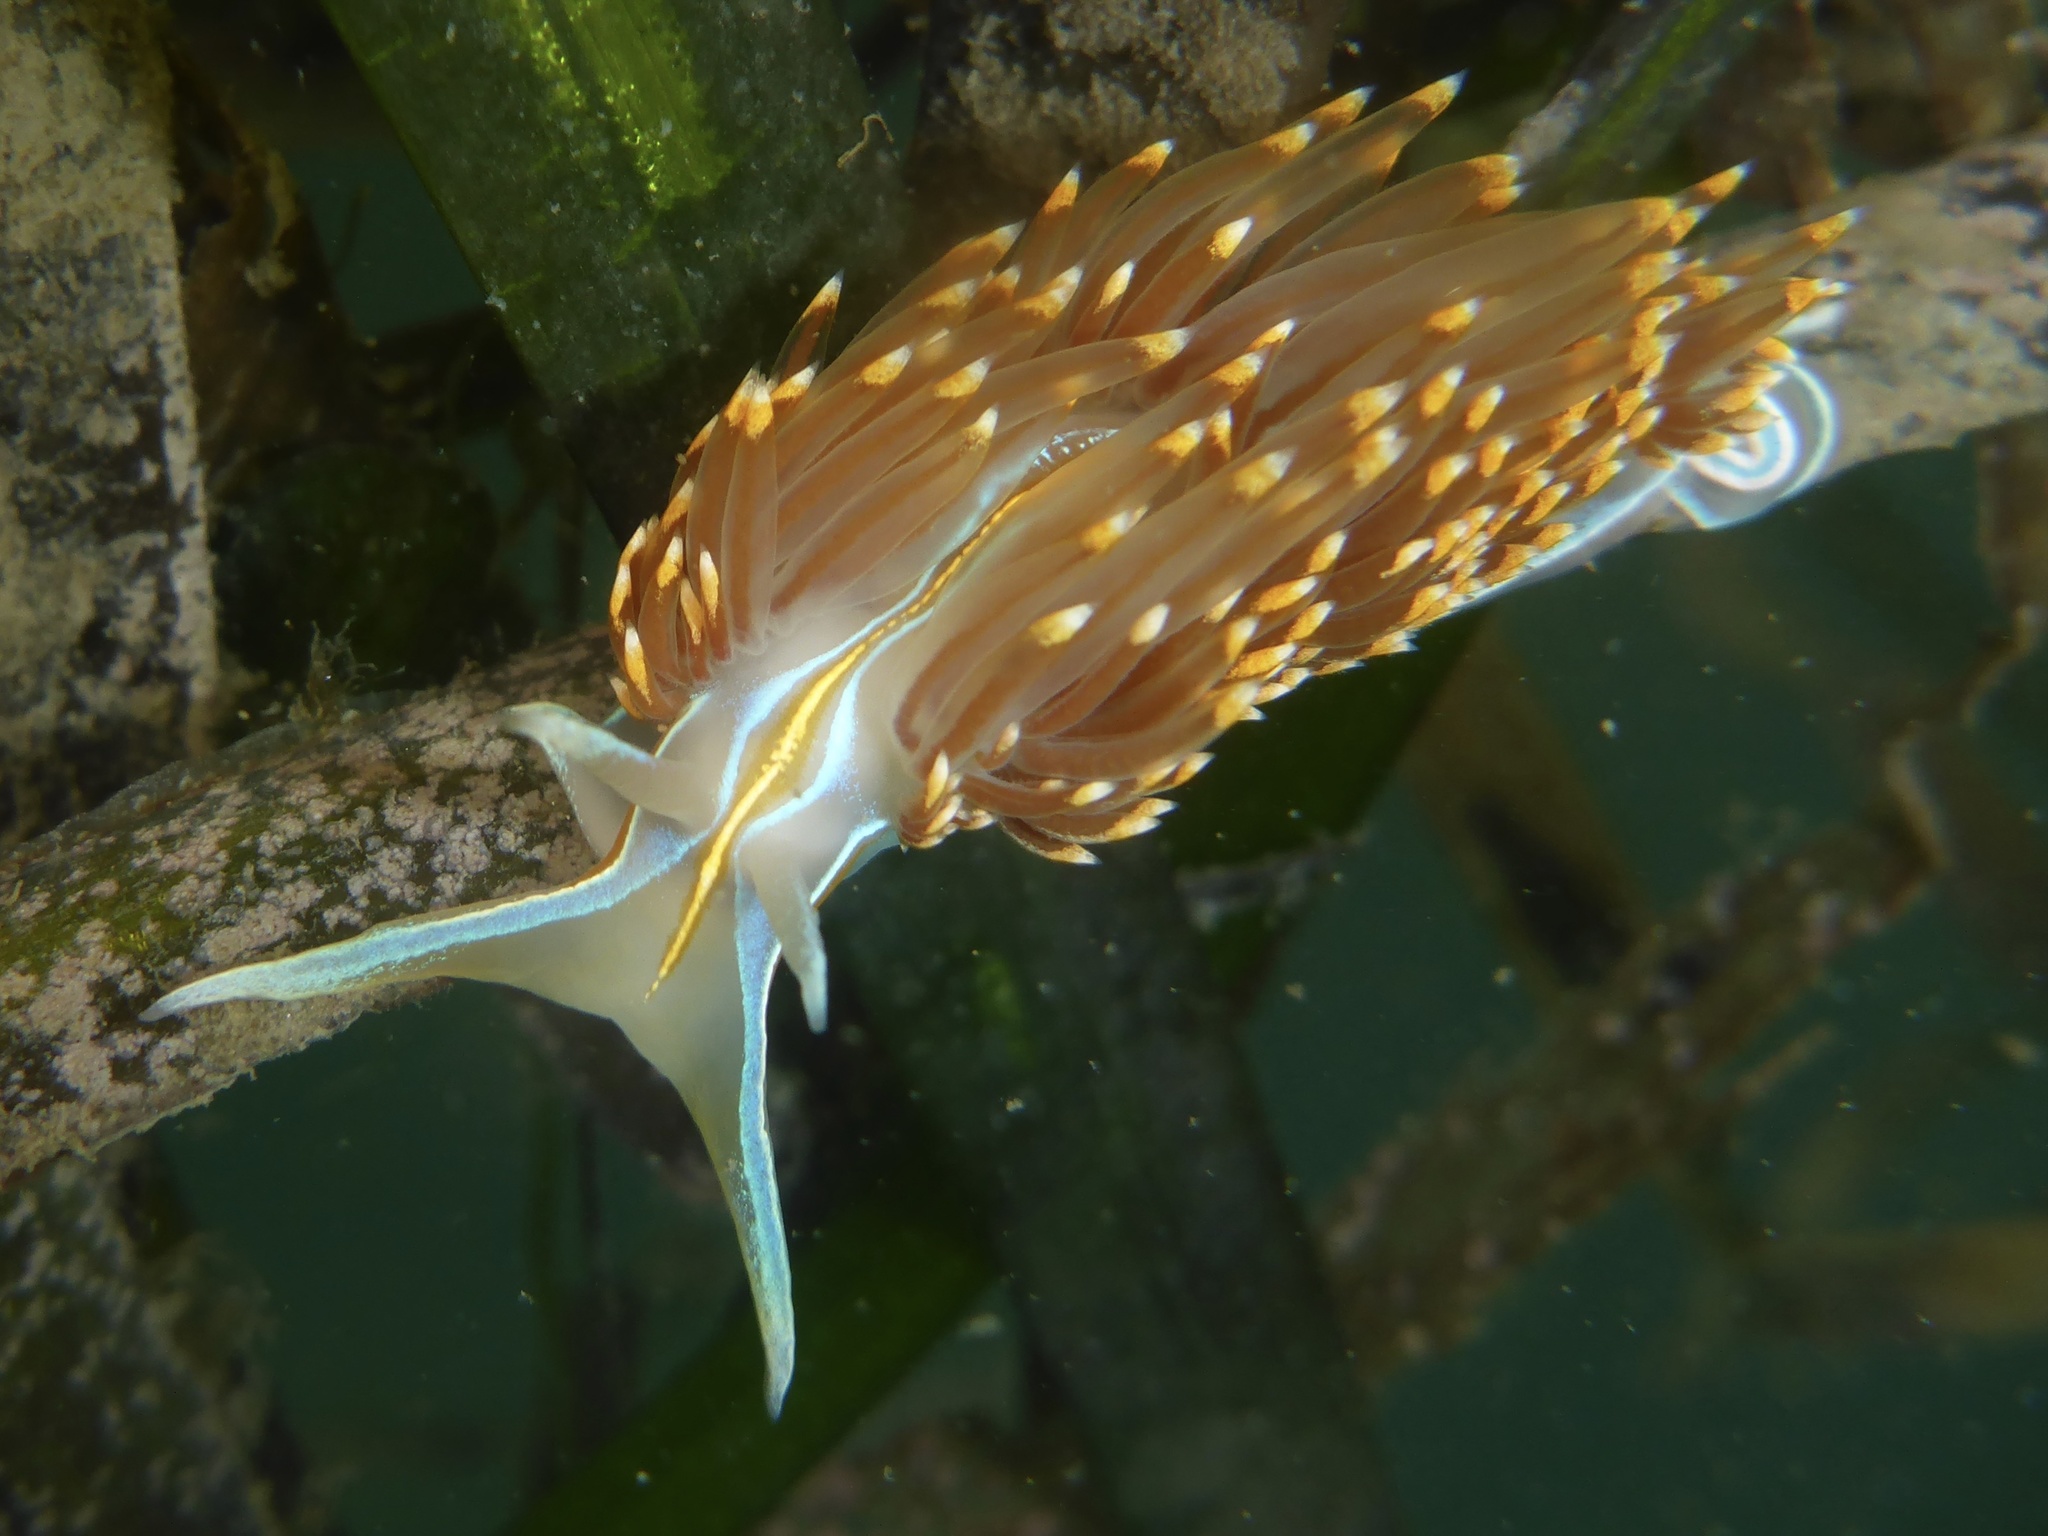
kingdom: Animalia
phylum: Mollusca
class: Gastropoda
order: Nudibranchia
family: Myrrhinidae
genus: Hermissenda
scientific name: Hermissenda opalescens
